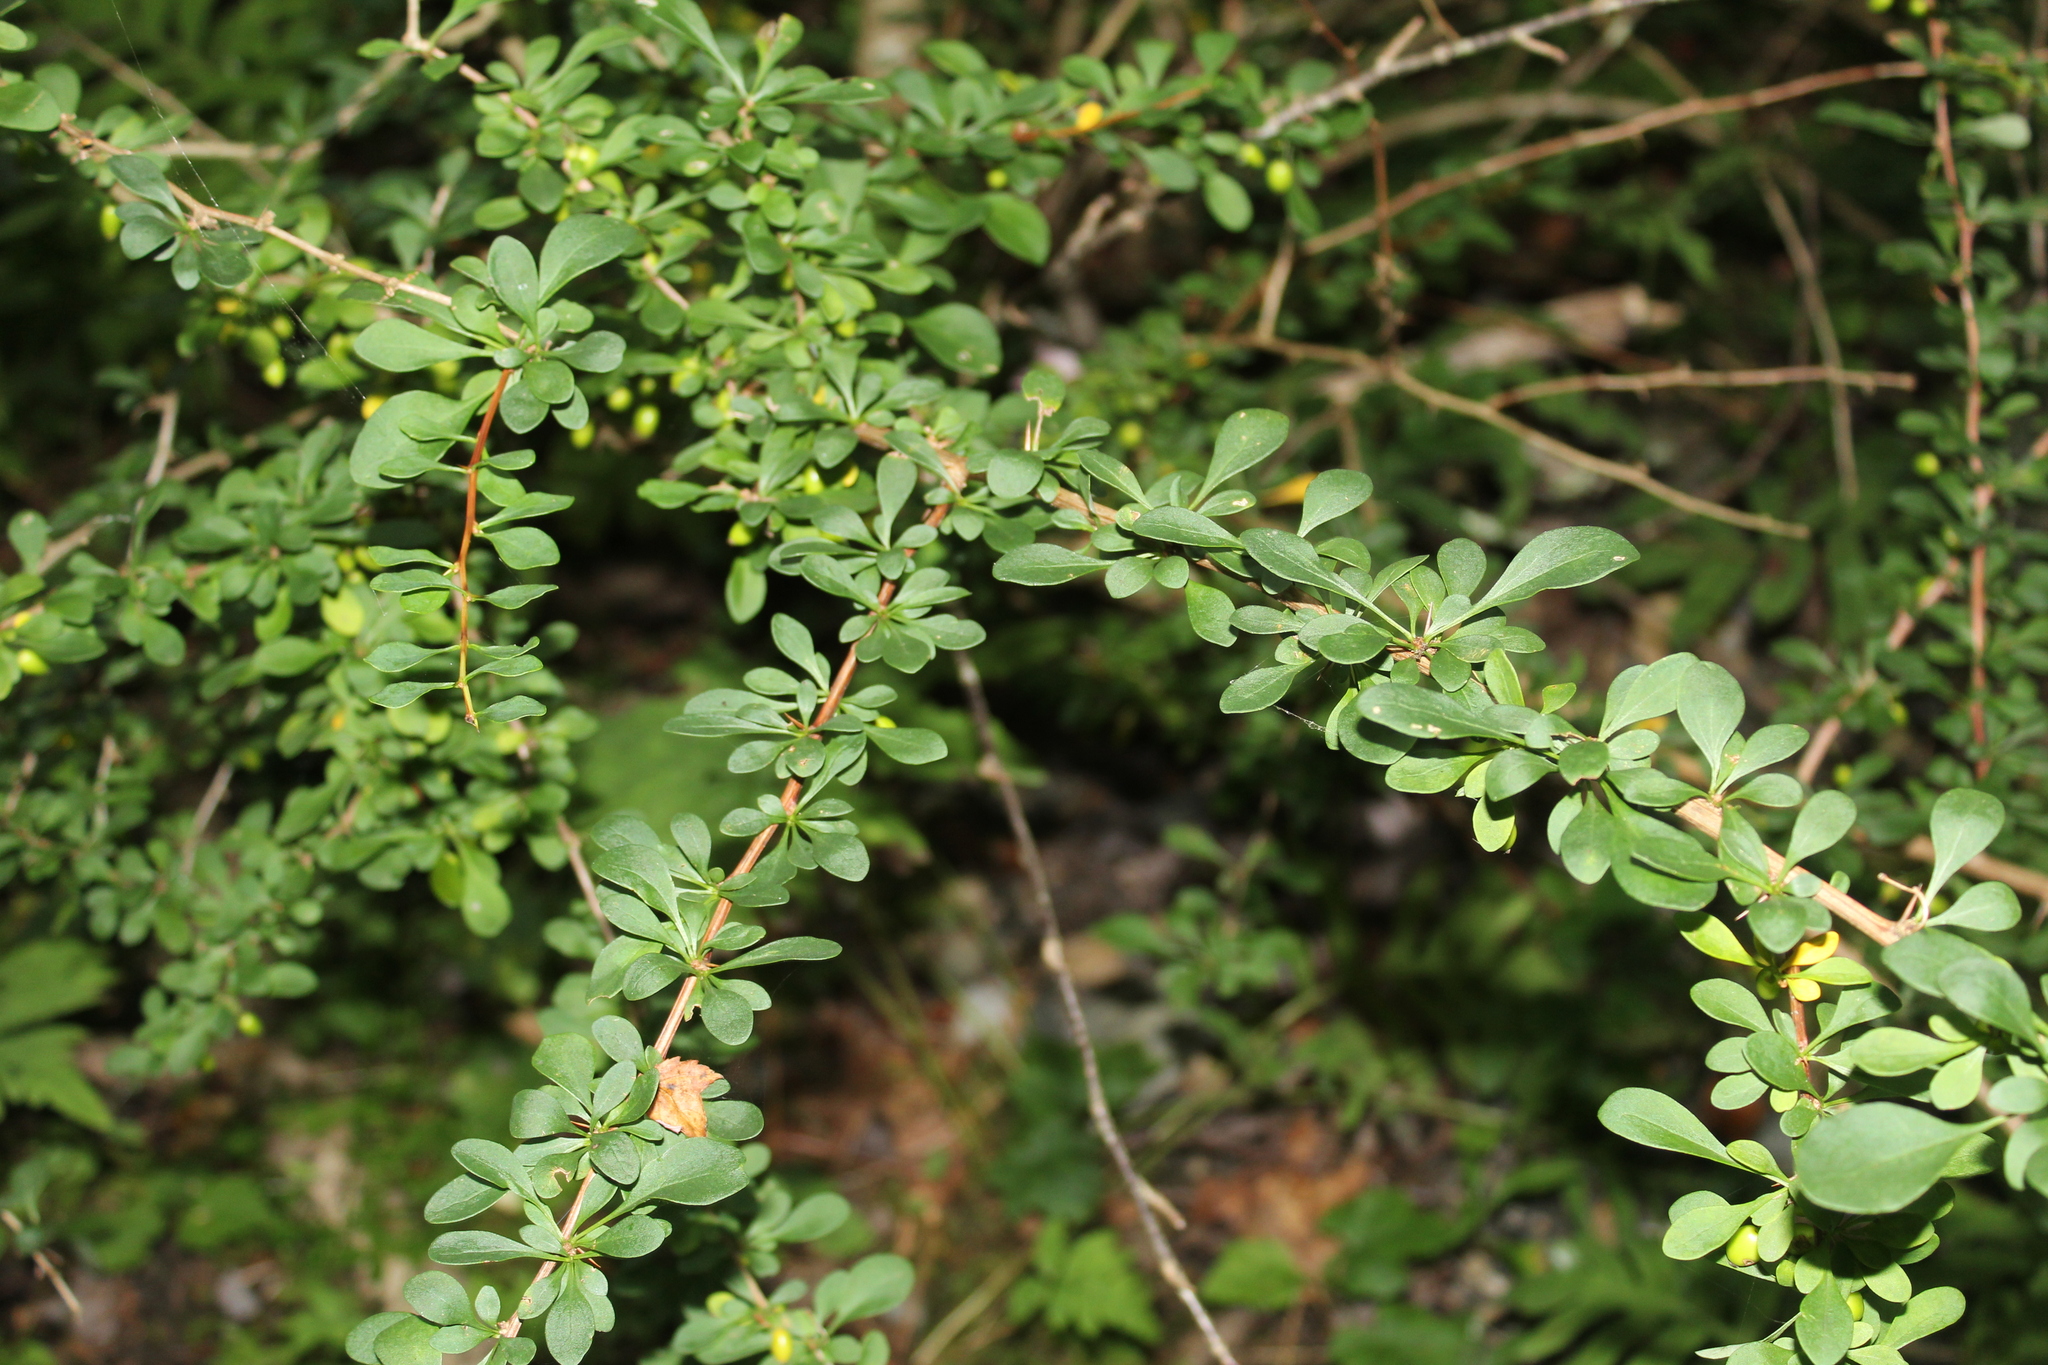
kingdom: Plantae
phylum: Tracheophyta
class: Magnoliopsida
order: Ranunculales
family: Berberidaceae
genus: Berberis
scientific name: Berberis thunbergii
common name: Japanese barberry
